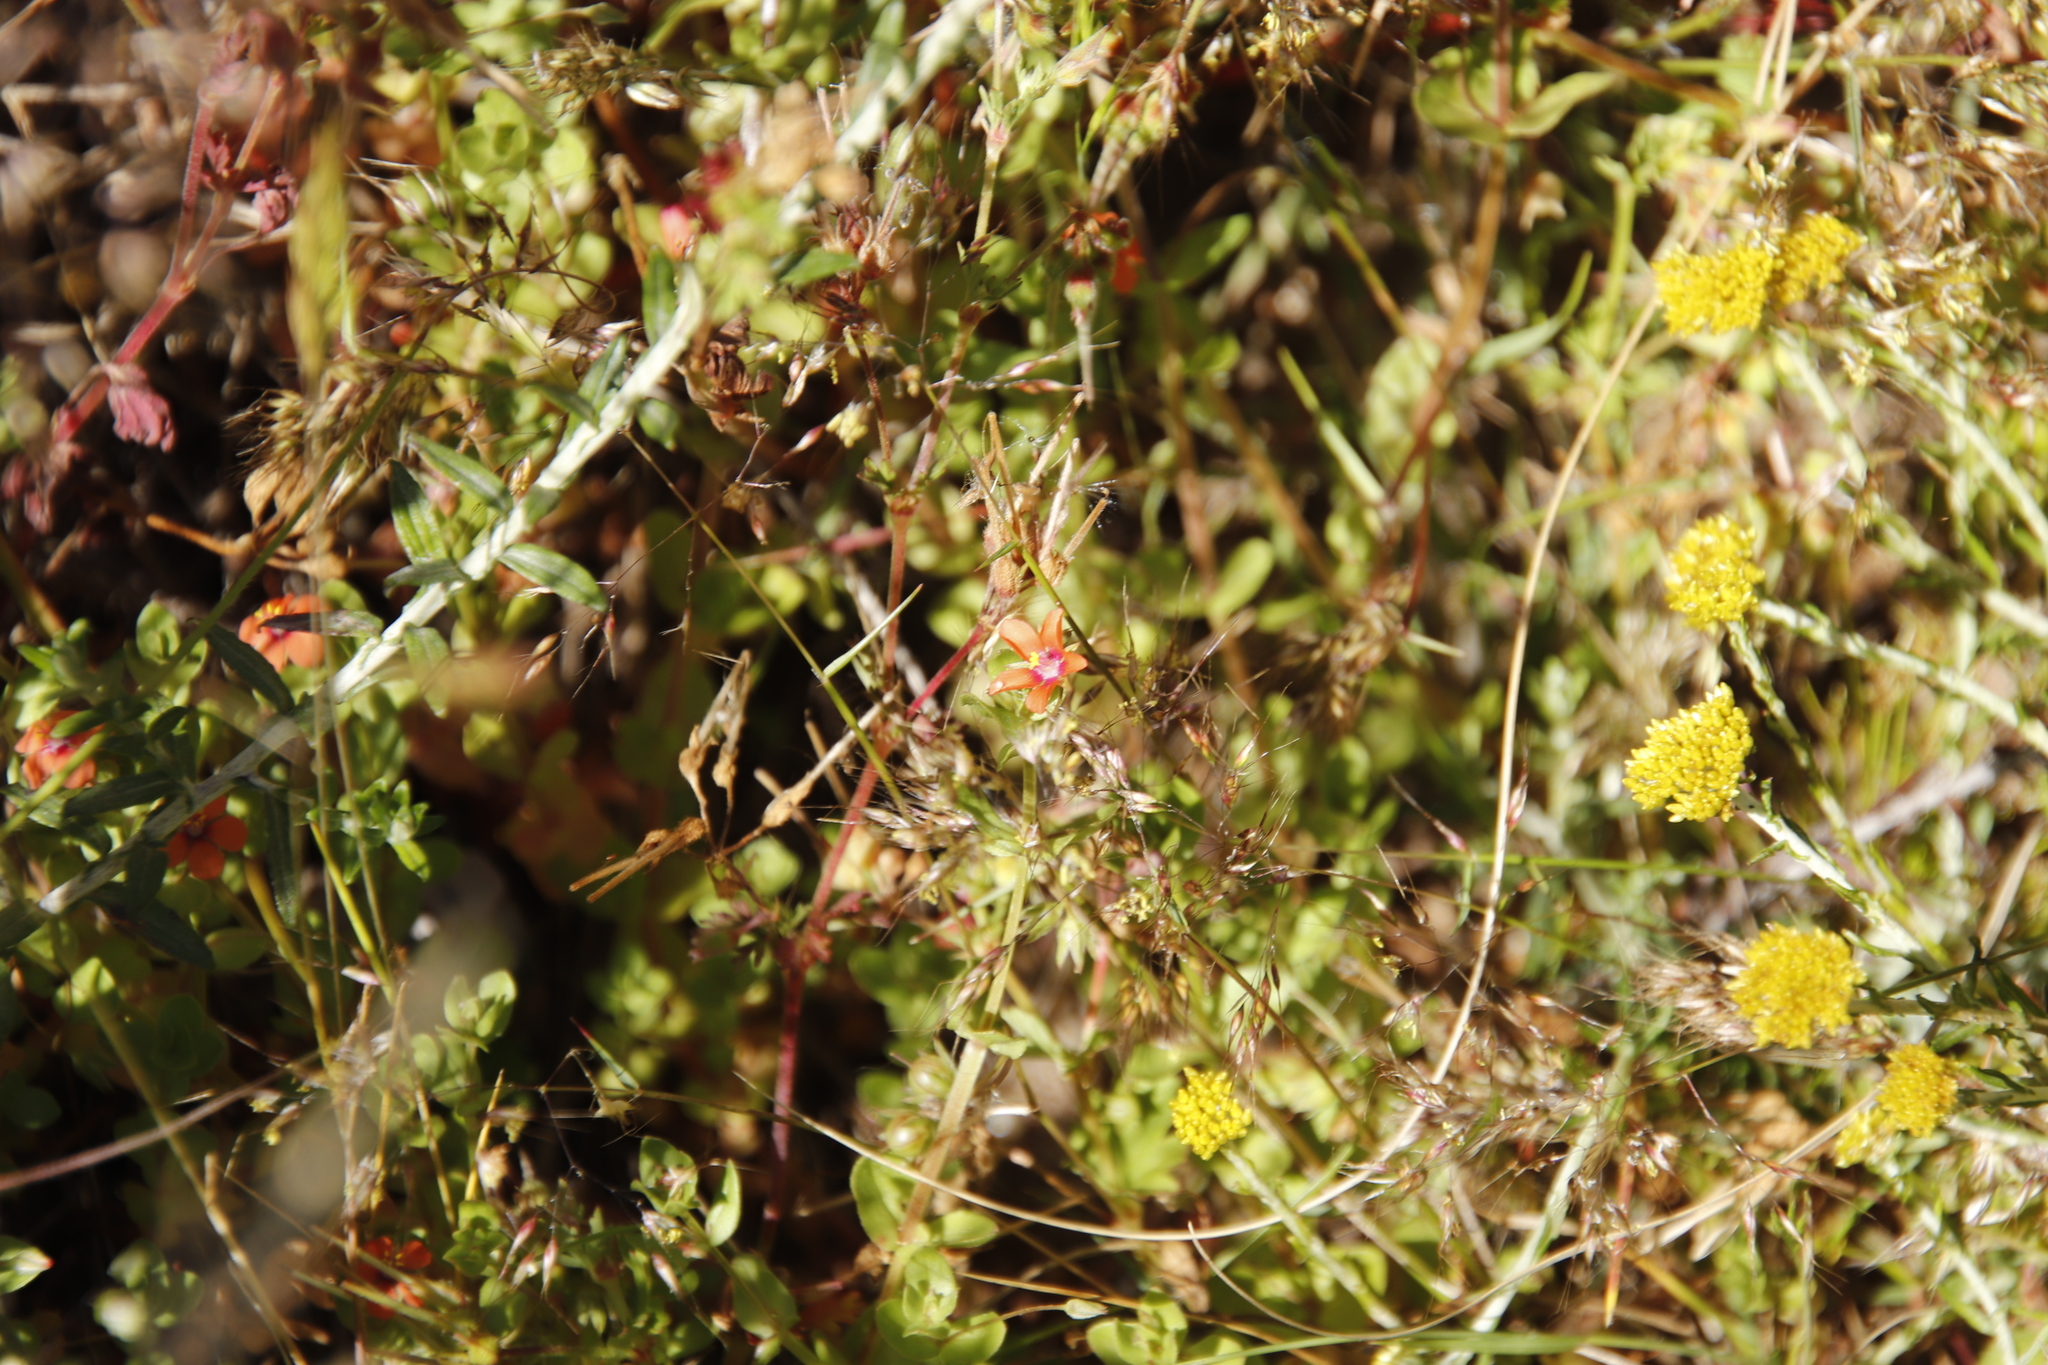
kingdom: Plantae
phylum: Tracheophyta
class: Magnoliopsida
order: Ericales
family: Primulaceae
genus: Lysimachia
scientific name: Lysimachia arvensis
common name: Scarlet pimpernel
